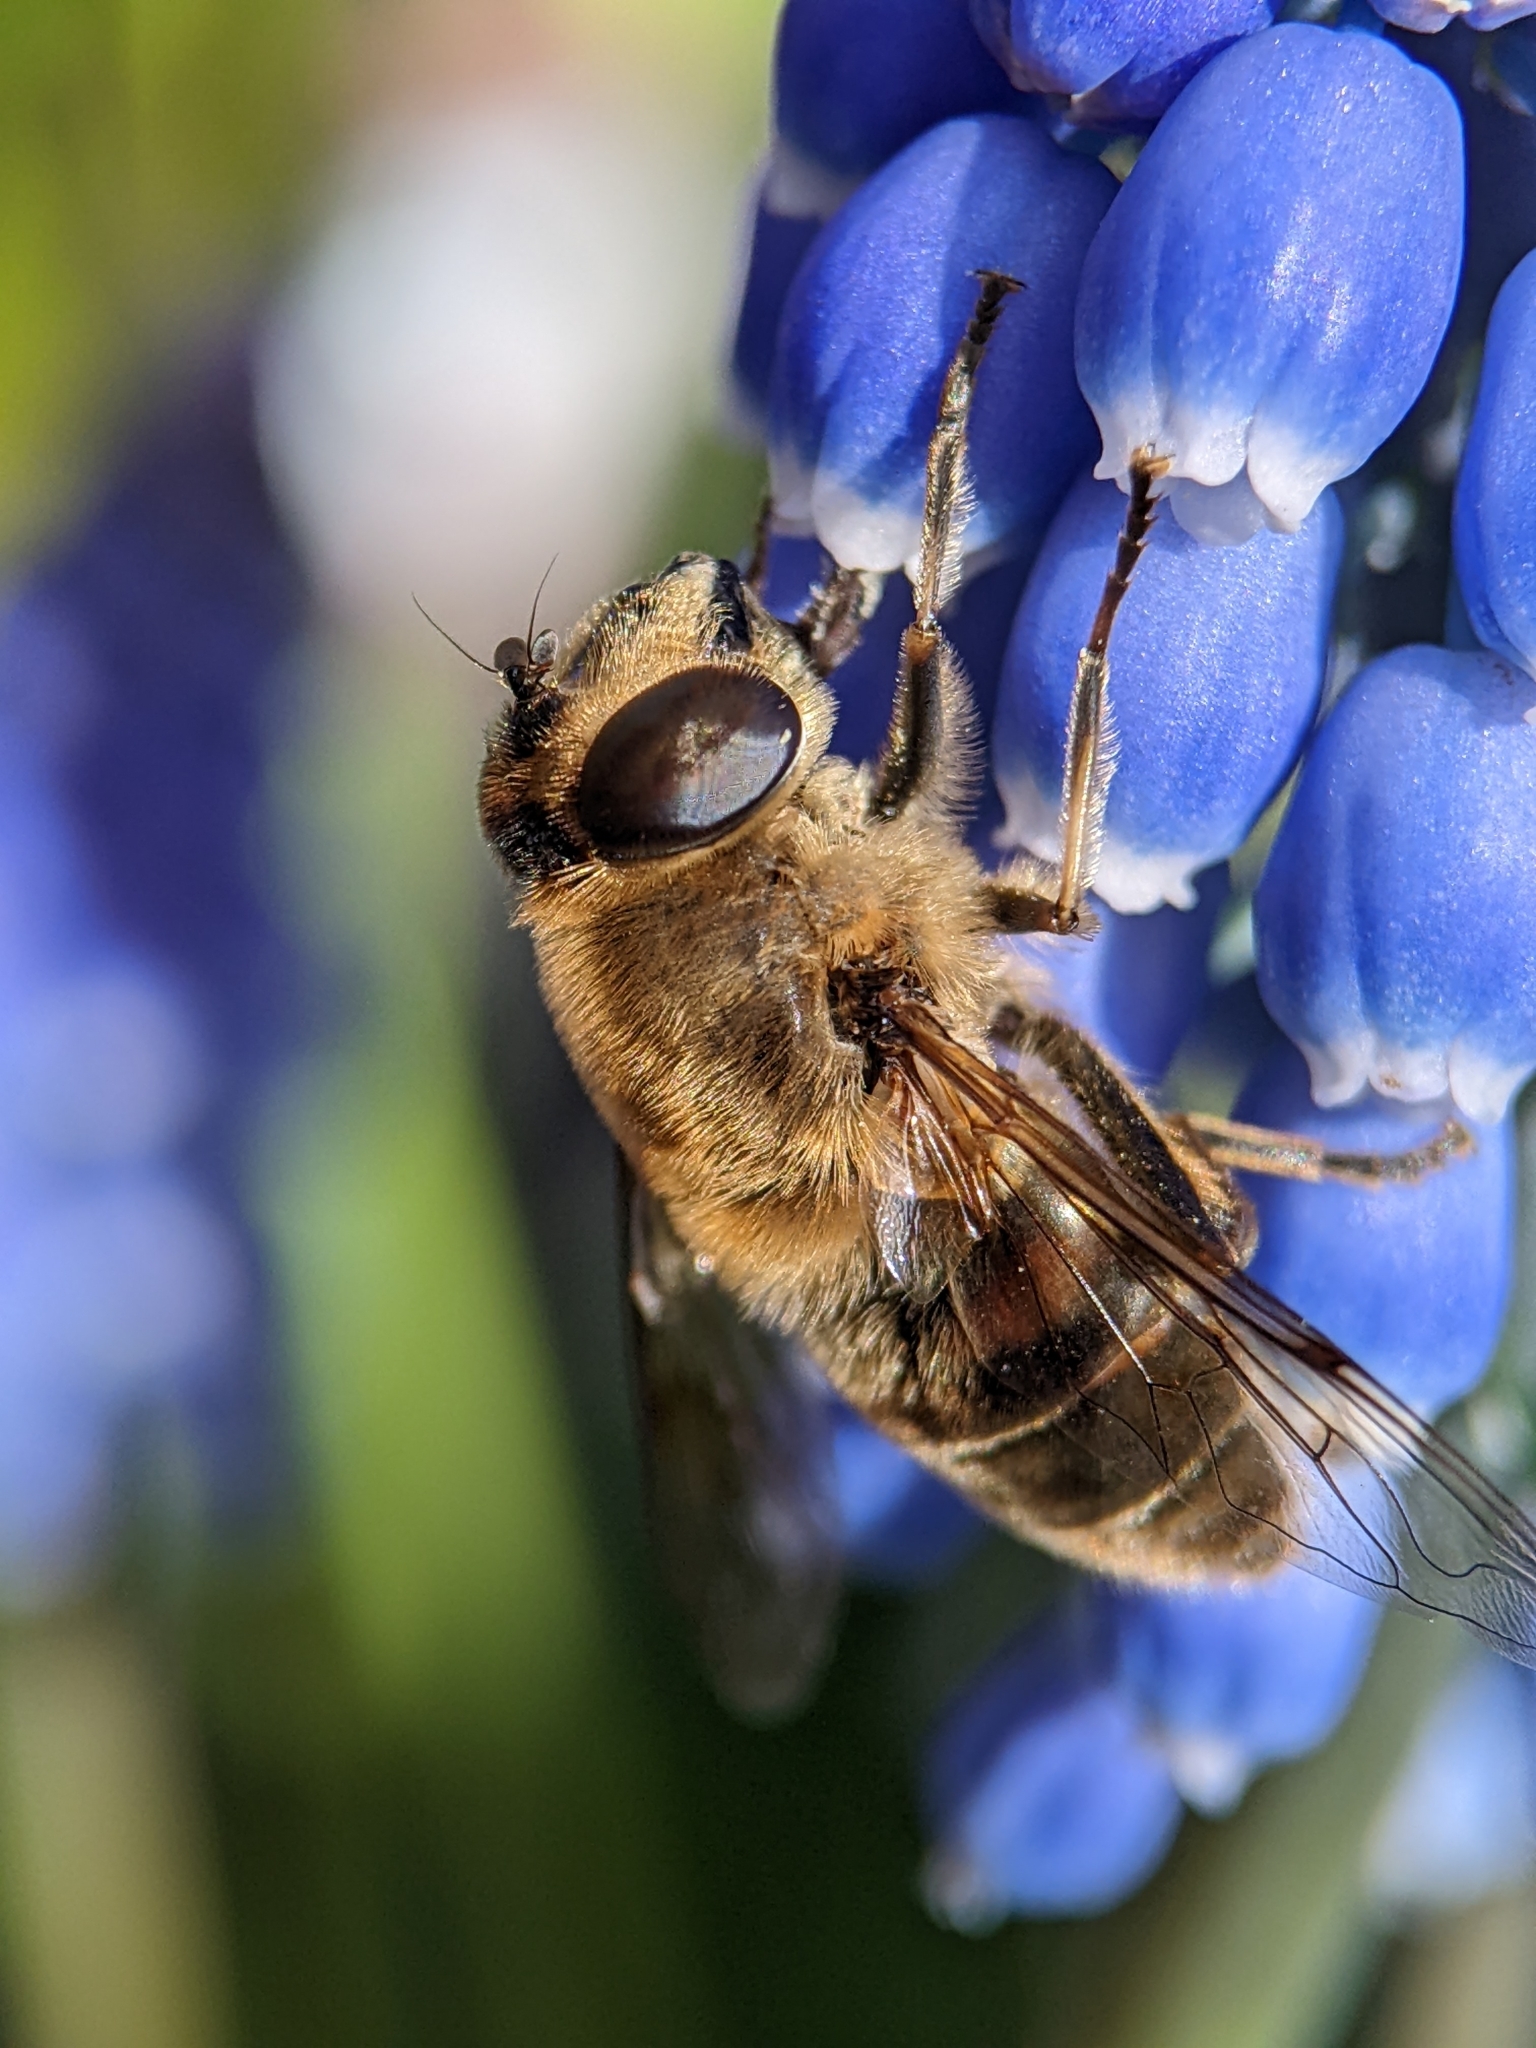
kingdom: Animalia
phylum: Arthropoda
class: Insecta
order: Diptera
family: Syrphidae
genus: Eristalis
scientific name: Eristalis tenax
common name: Drone fly
